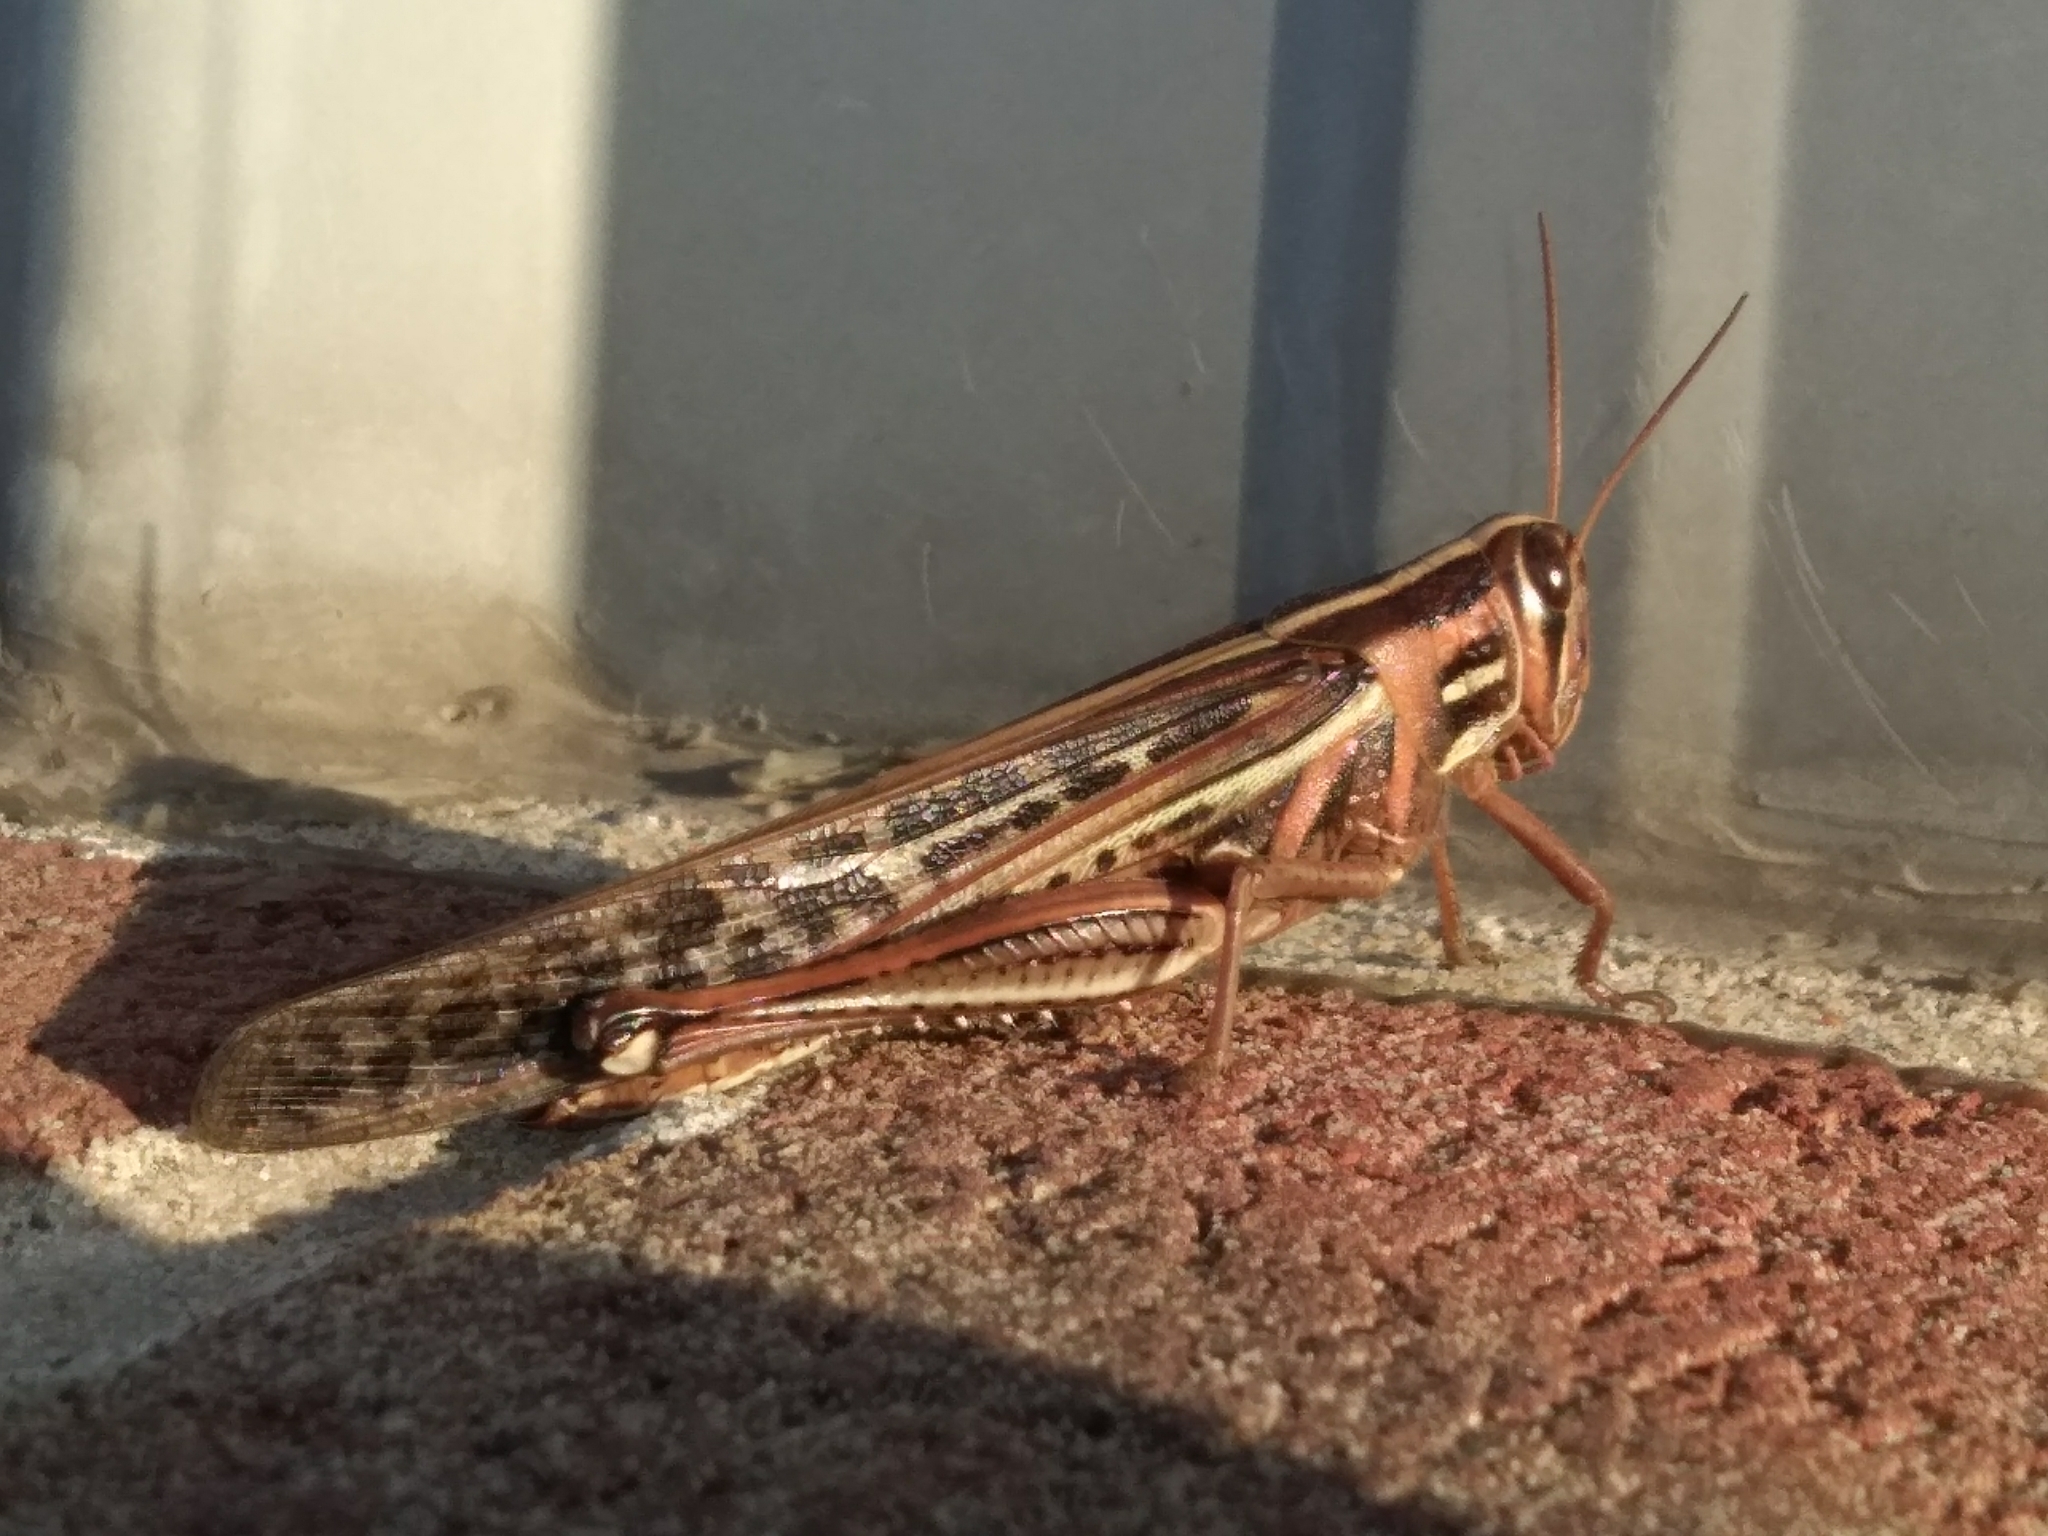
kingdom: Animalia
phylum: Arthropoda
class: Insecta
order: Orthoptera
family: Acrididae
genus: Schistocerca
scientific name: Schistocerca americana
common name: American bird locust
